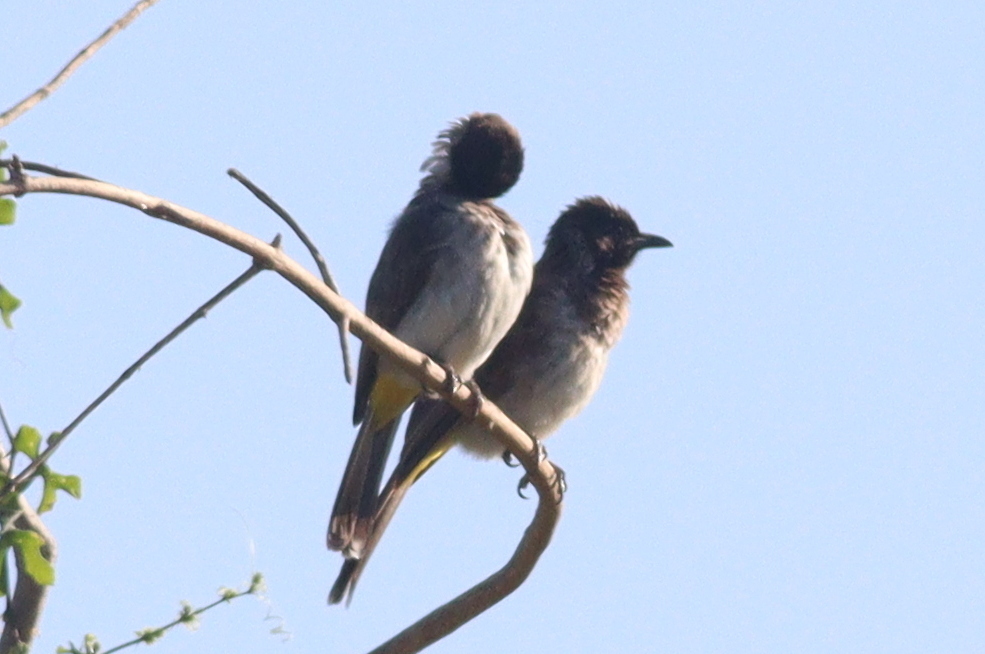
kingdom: Animalia
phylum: Chordata
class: Aves
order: Passeriformes
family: Pycnonotidae
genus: Pycnonotus
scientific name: Pycnonotus barbatus
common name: Common bulbul
